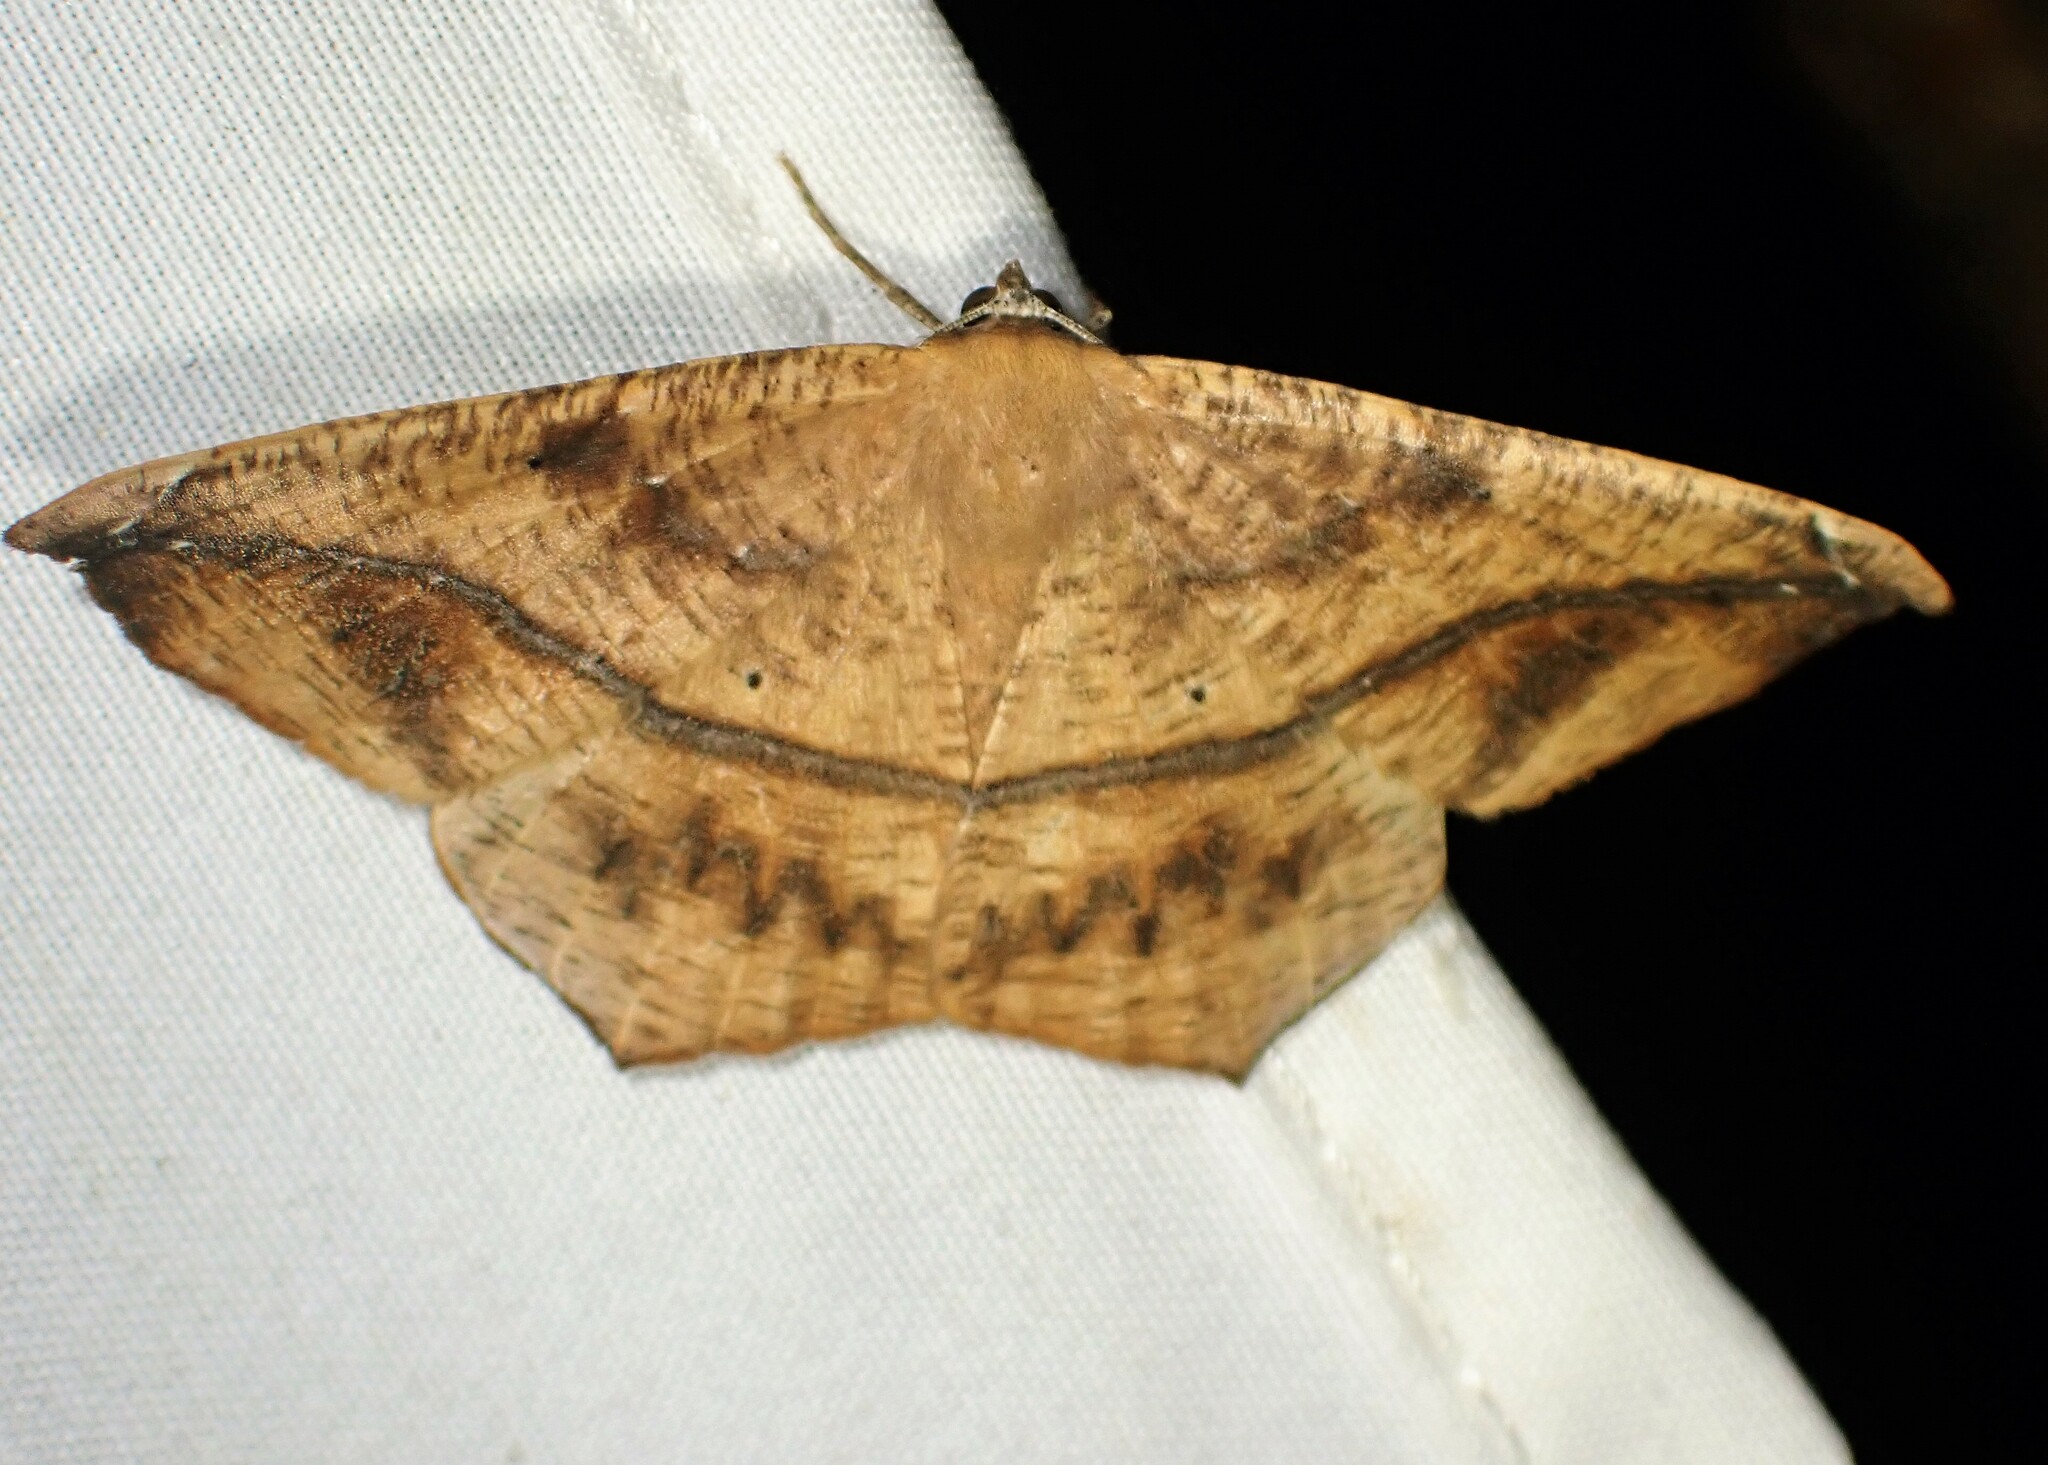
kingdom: Animalia
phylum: Arthropoda
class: Insecta
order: Lepidoptera
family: Geometridae
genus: Prochoerodes
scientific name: Prochoerodes lineola
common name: Large maple spanworm
